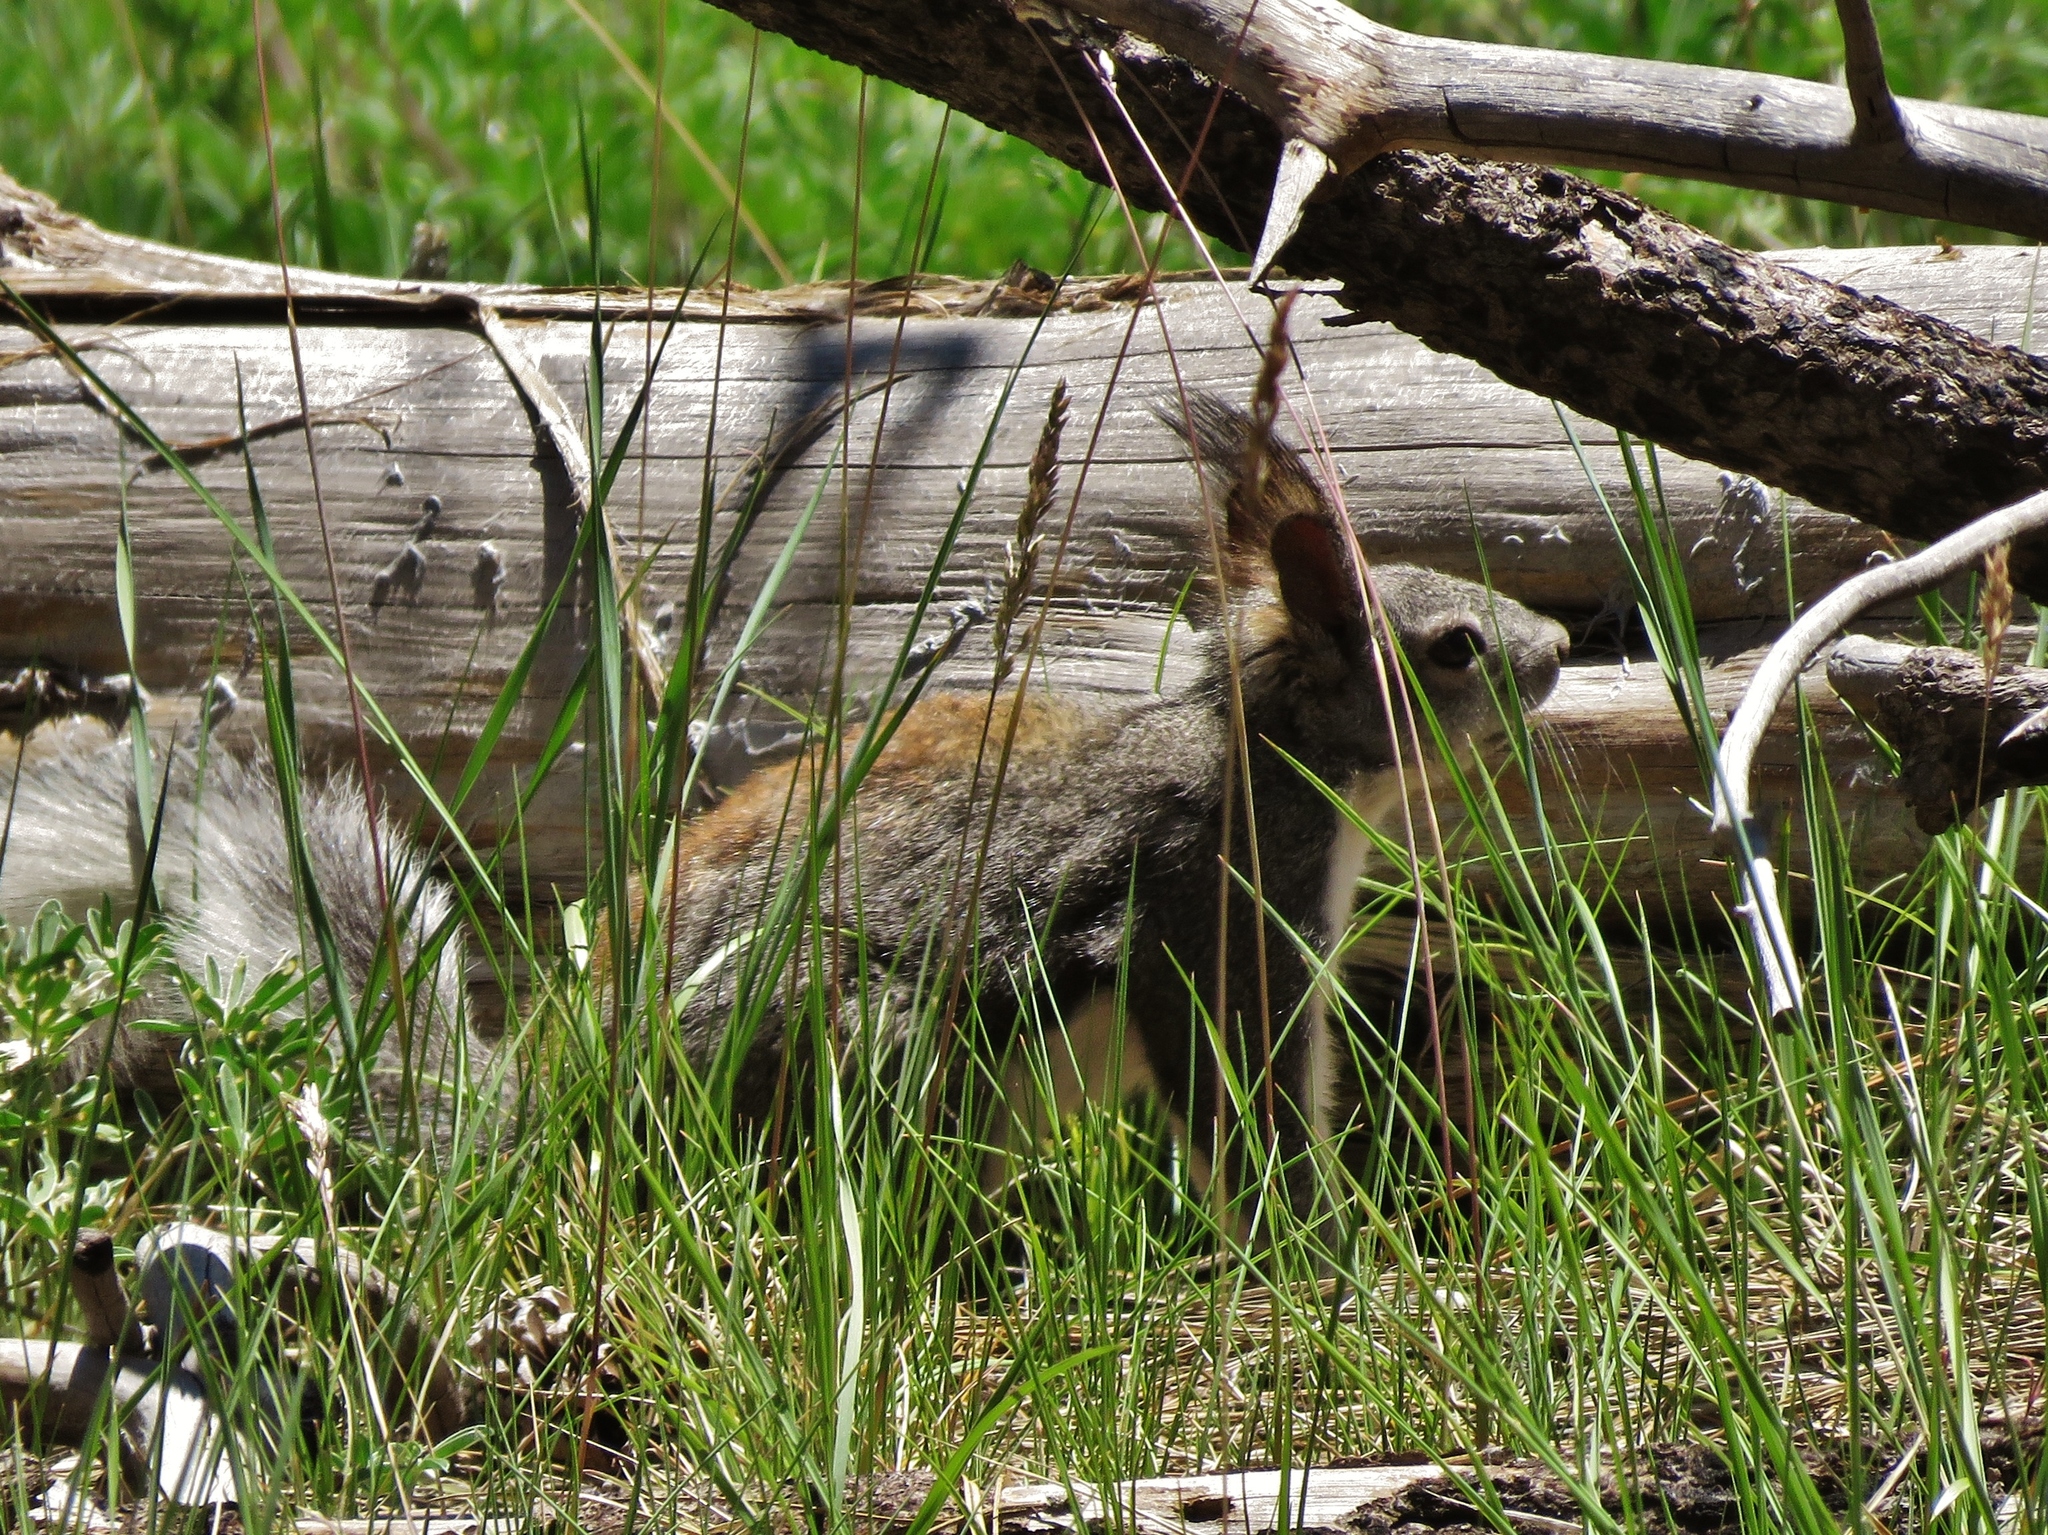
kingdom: Animalia
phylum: Chordata
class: Mammalia
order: Rodentia
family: Sciuridae
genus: Sciurus
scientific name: Sciurus aberti
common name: Abert's squirrel
